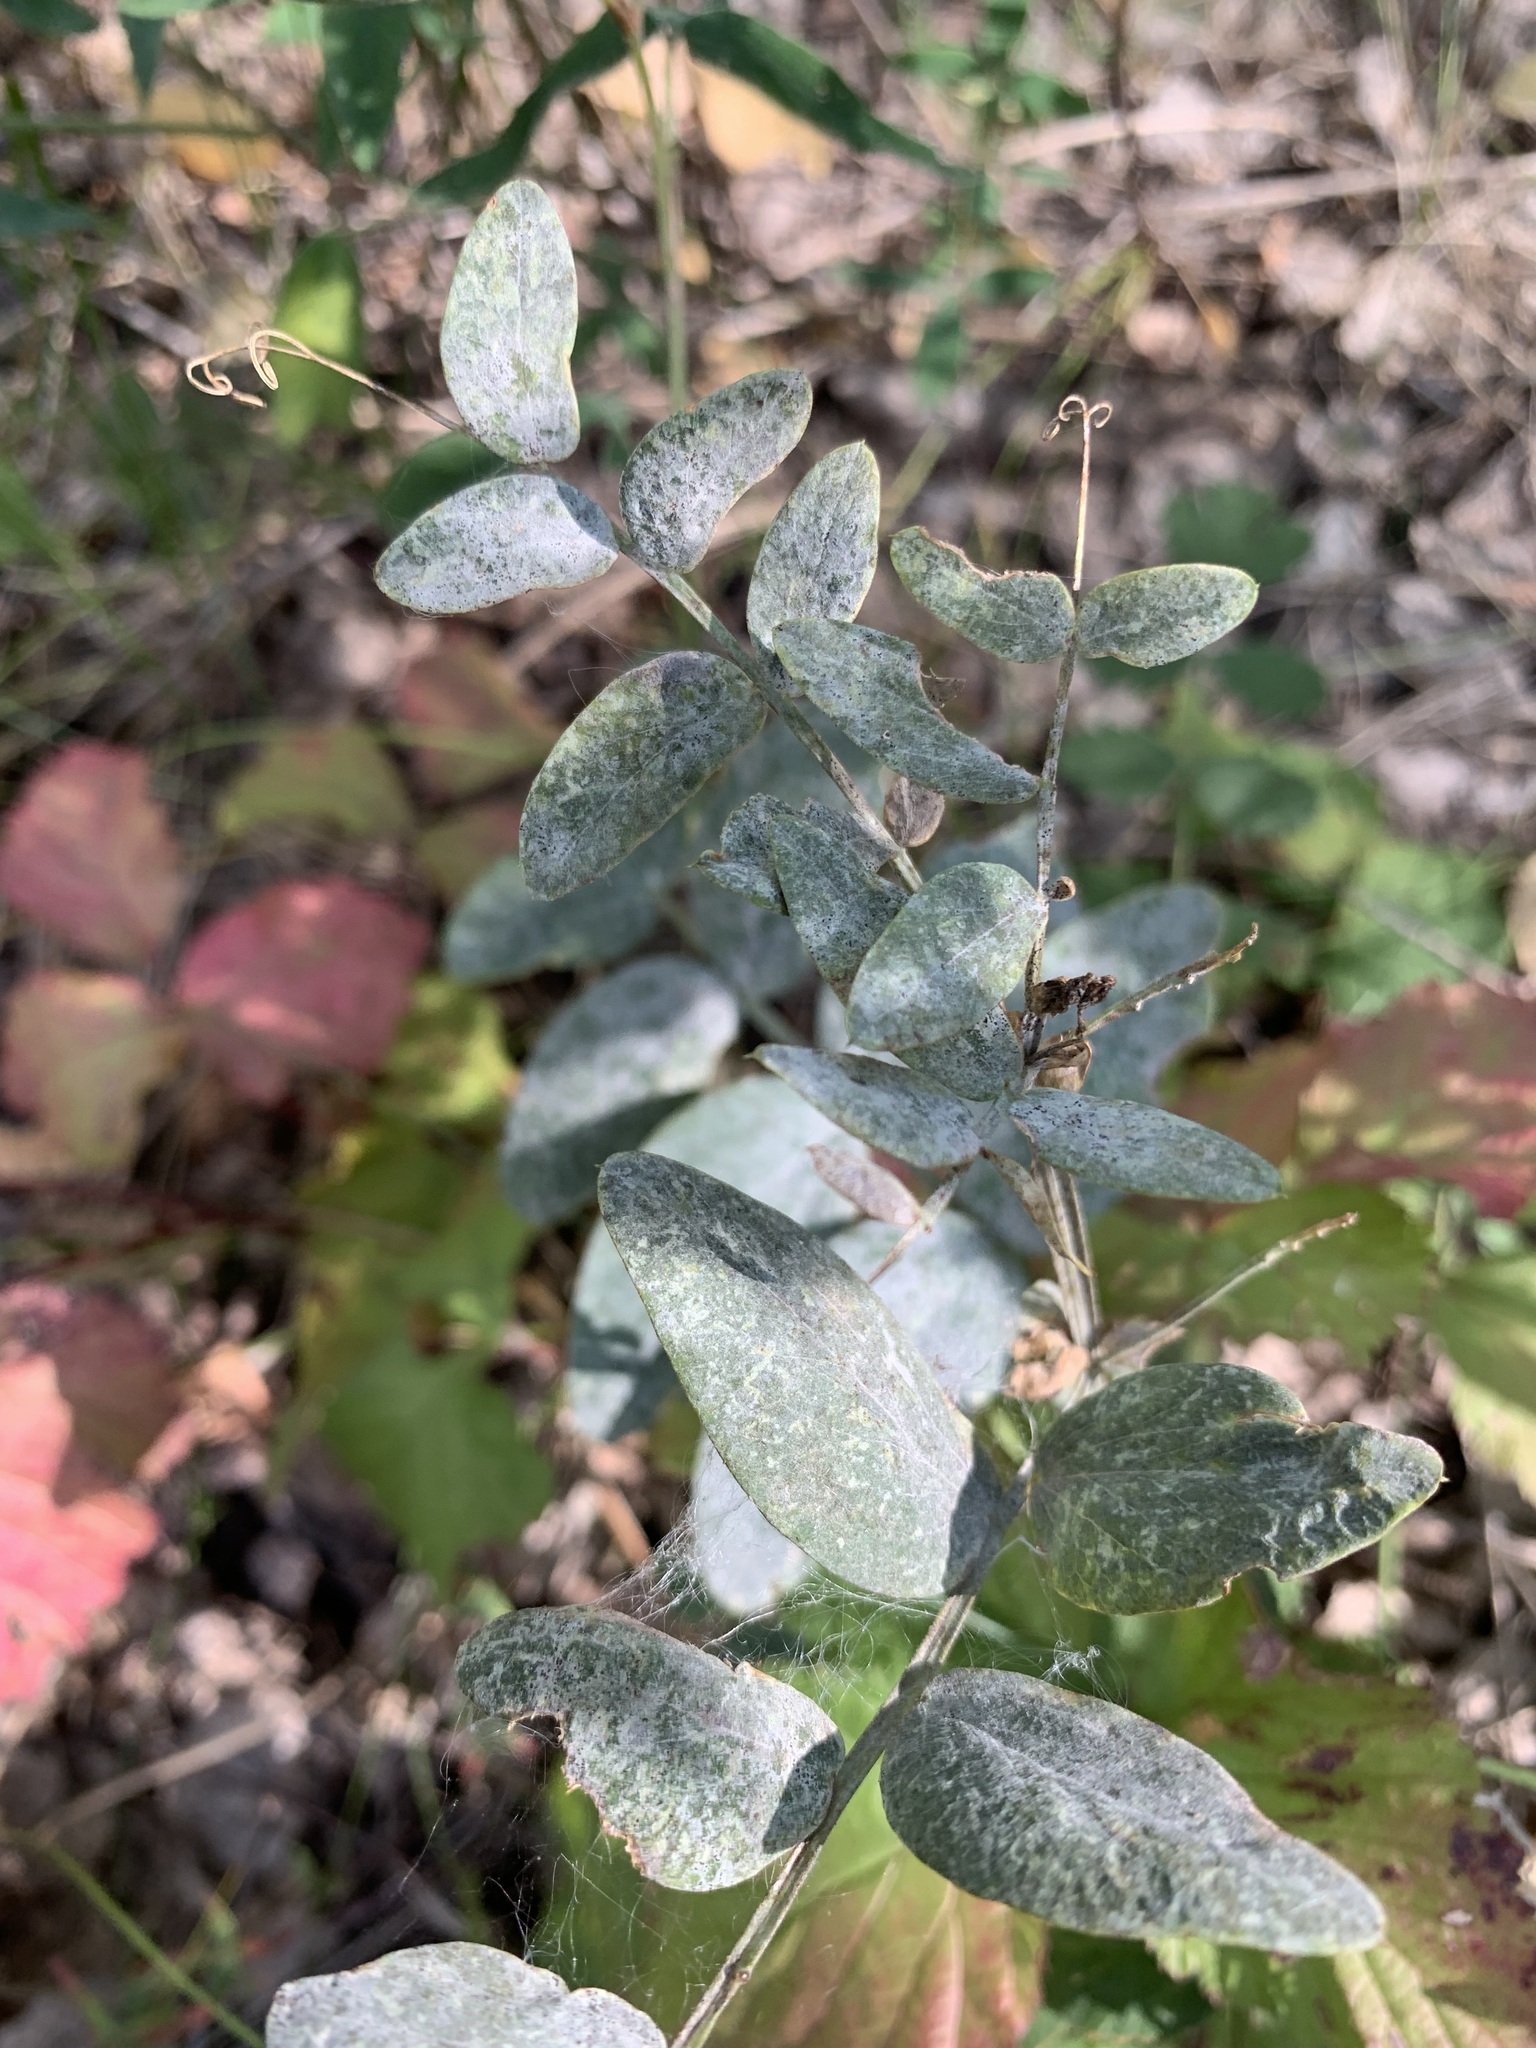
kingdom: Plantae
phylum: Tracheophyta
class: Magnoliopsida
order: Fabales
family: Fabaceae
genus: Lathyrus
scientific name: Lathyrus pisiformis
